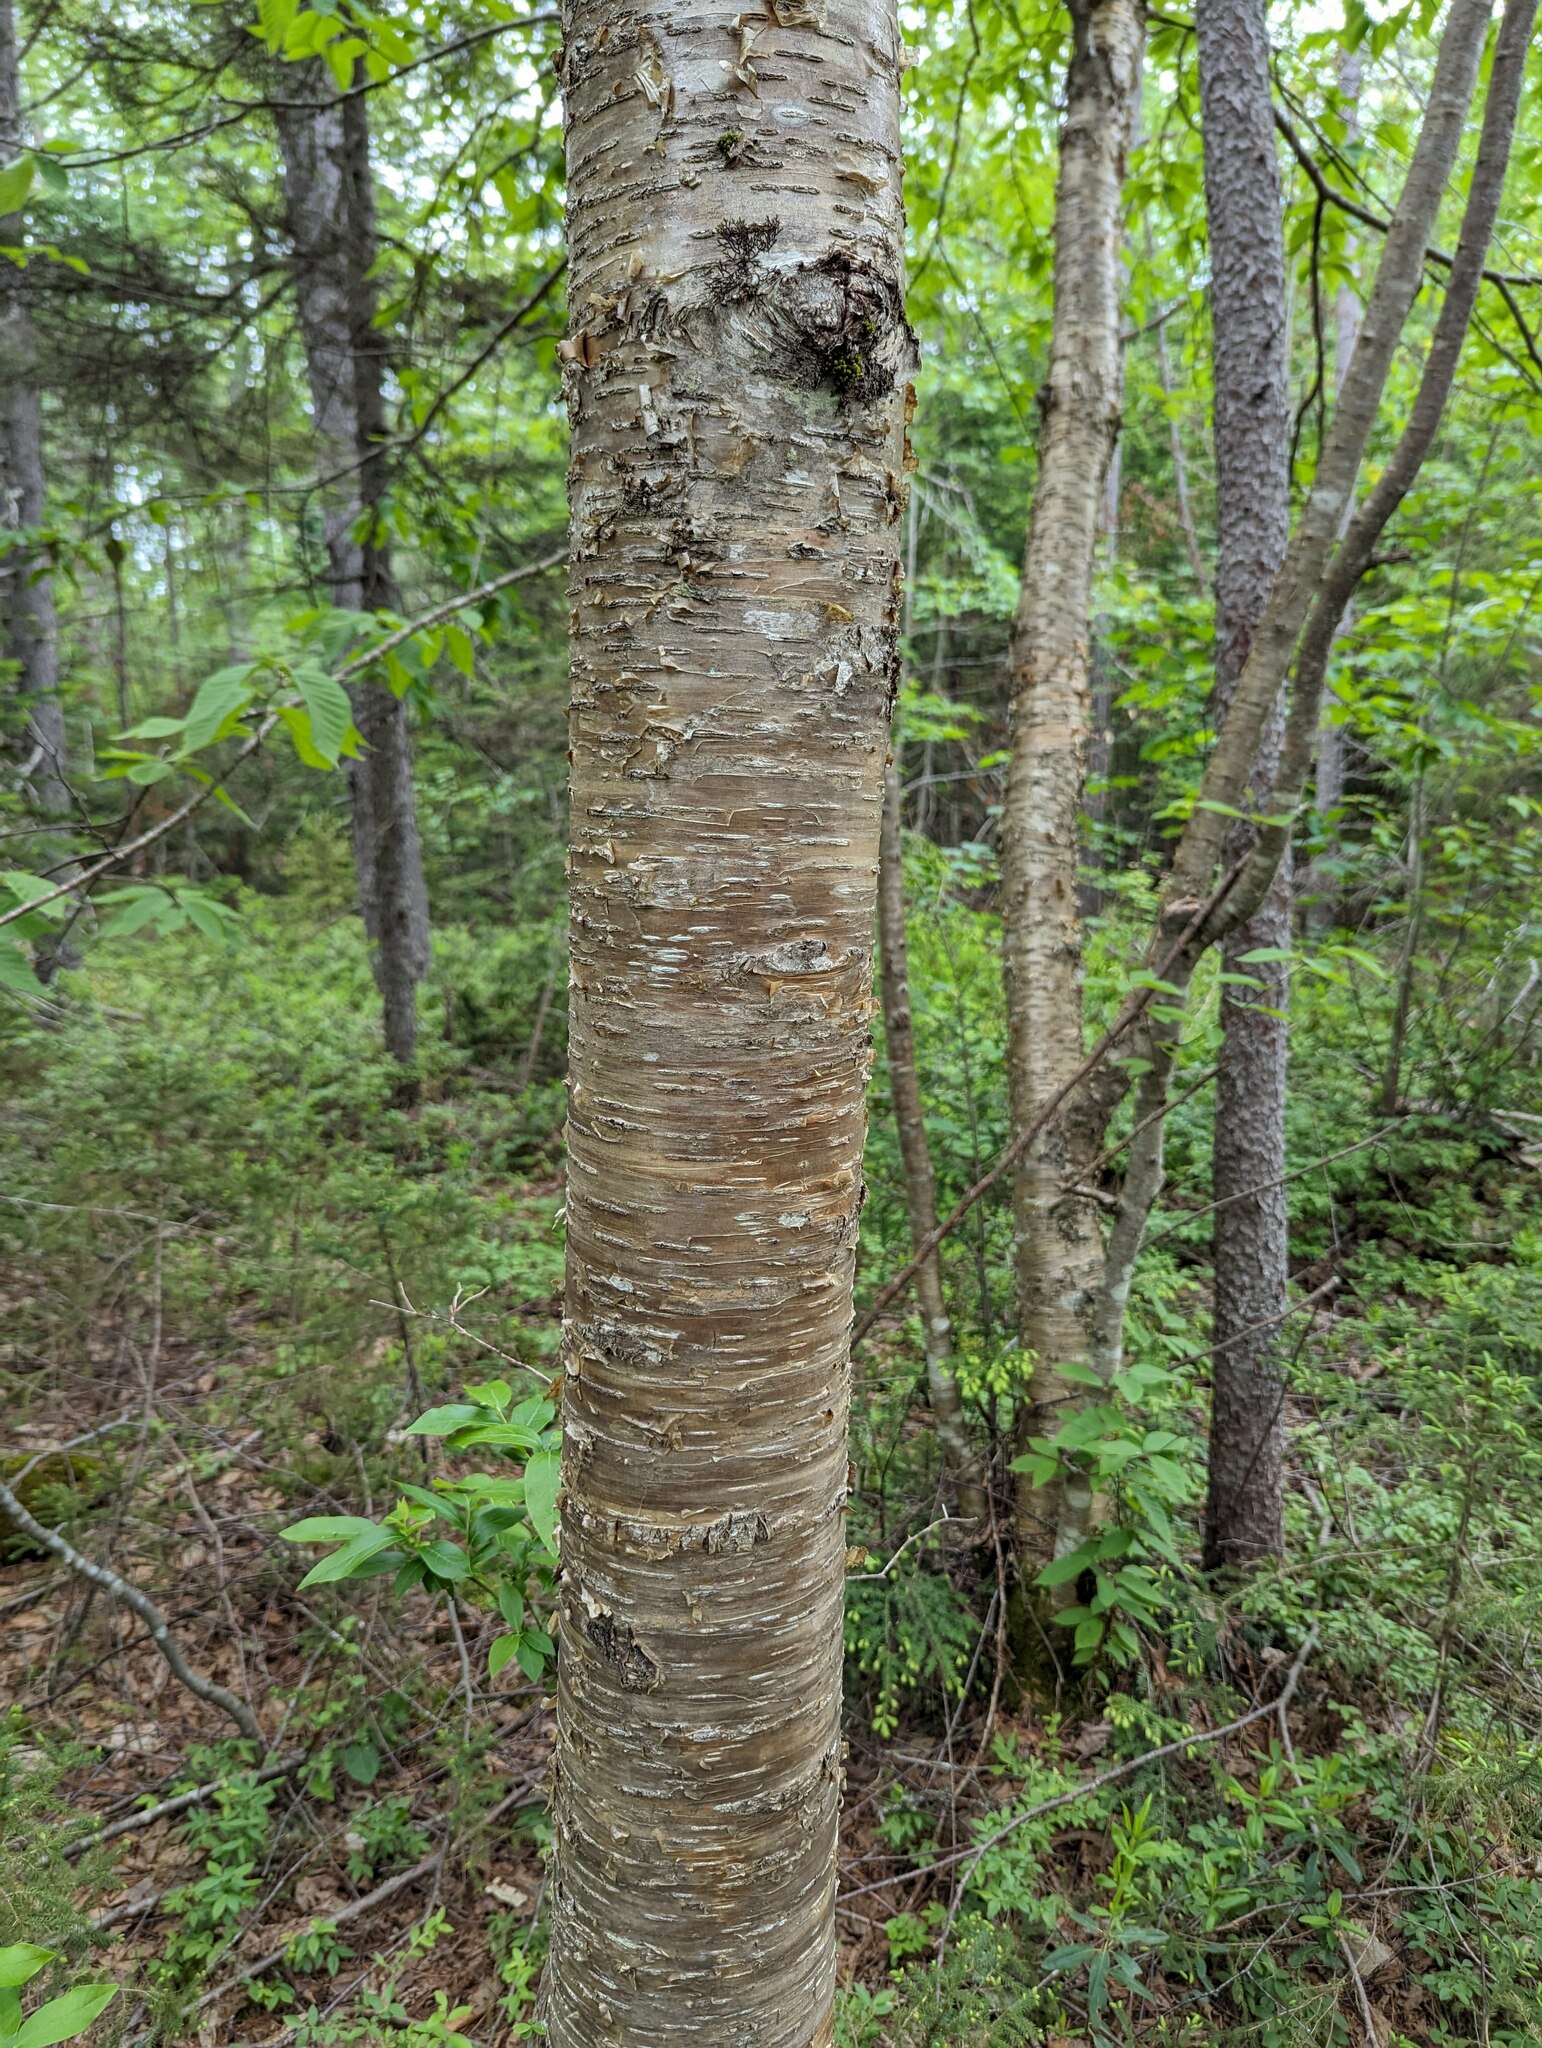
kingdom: Plantae
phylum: Tracheophyta
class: Magnoliopsida
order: Fagales
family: Betulaceae
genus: Betula
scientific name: Betula alleghaniensis
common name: Yellow birch
